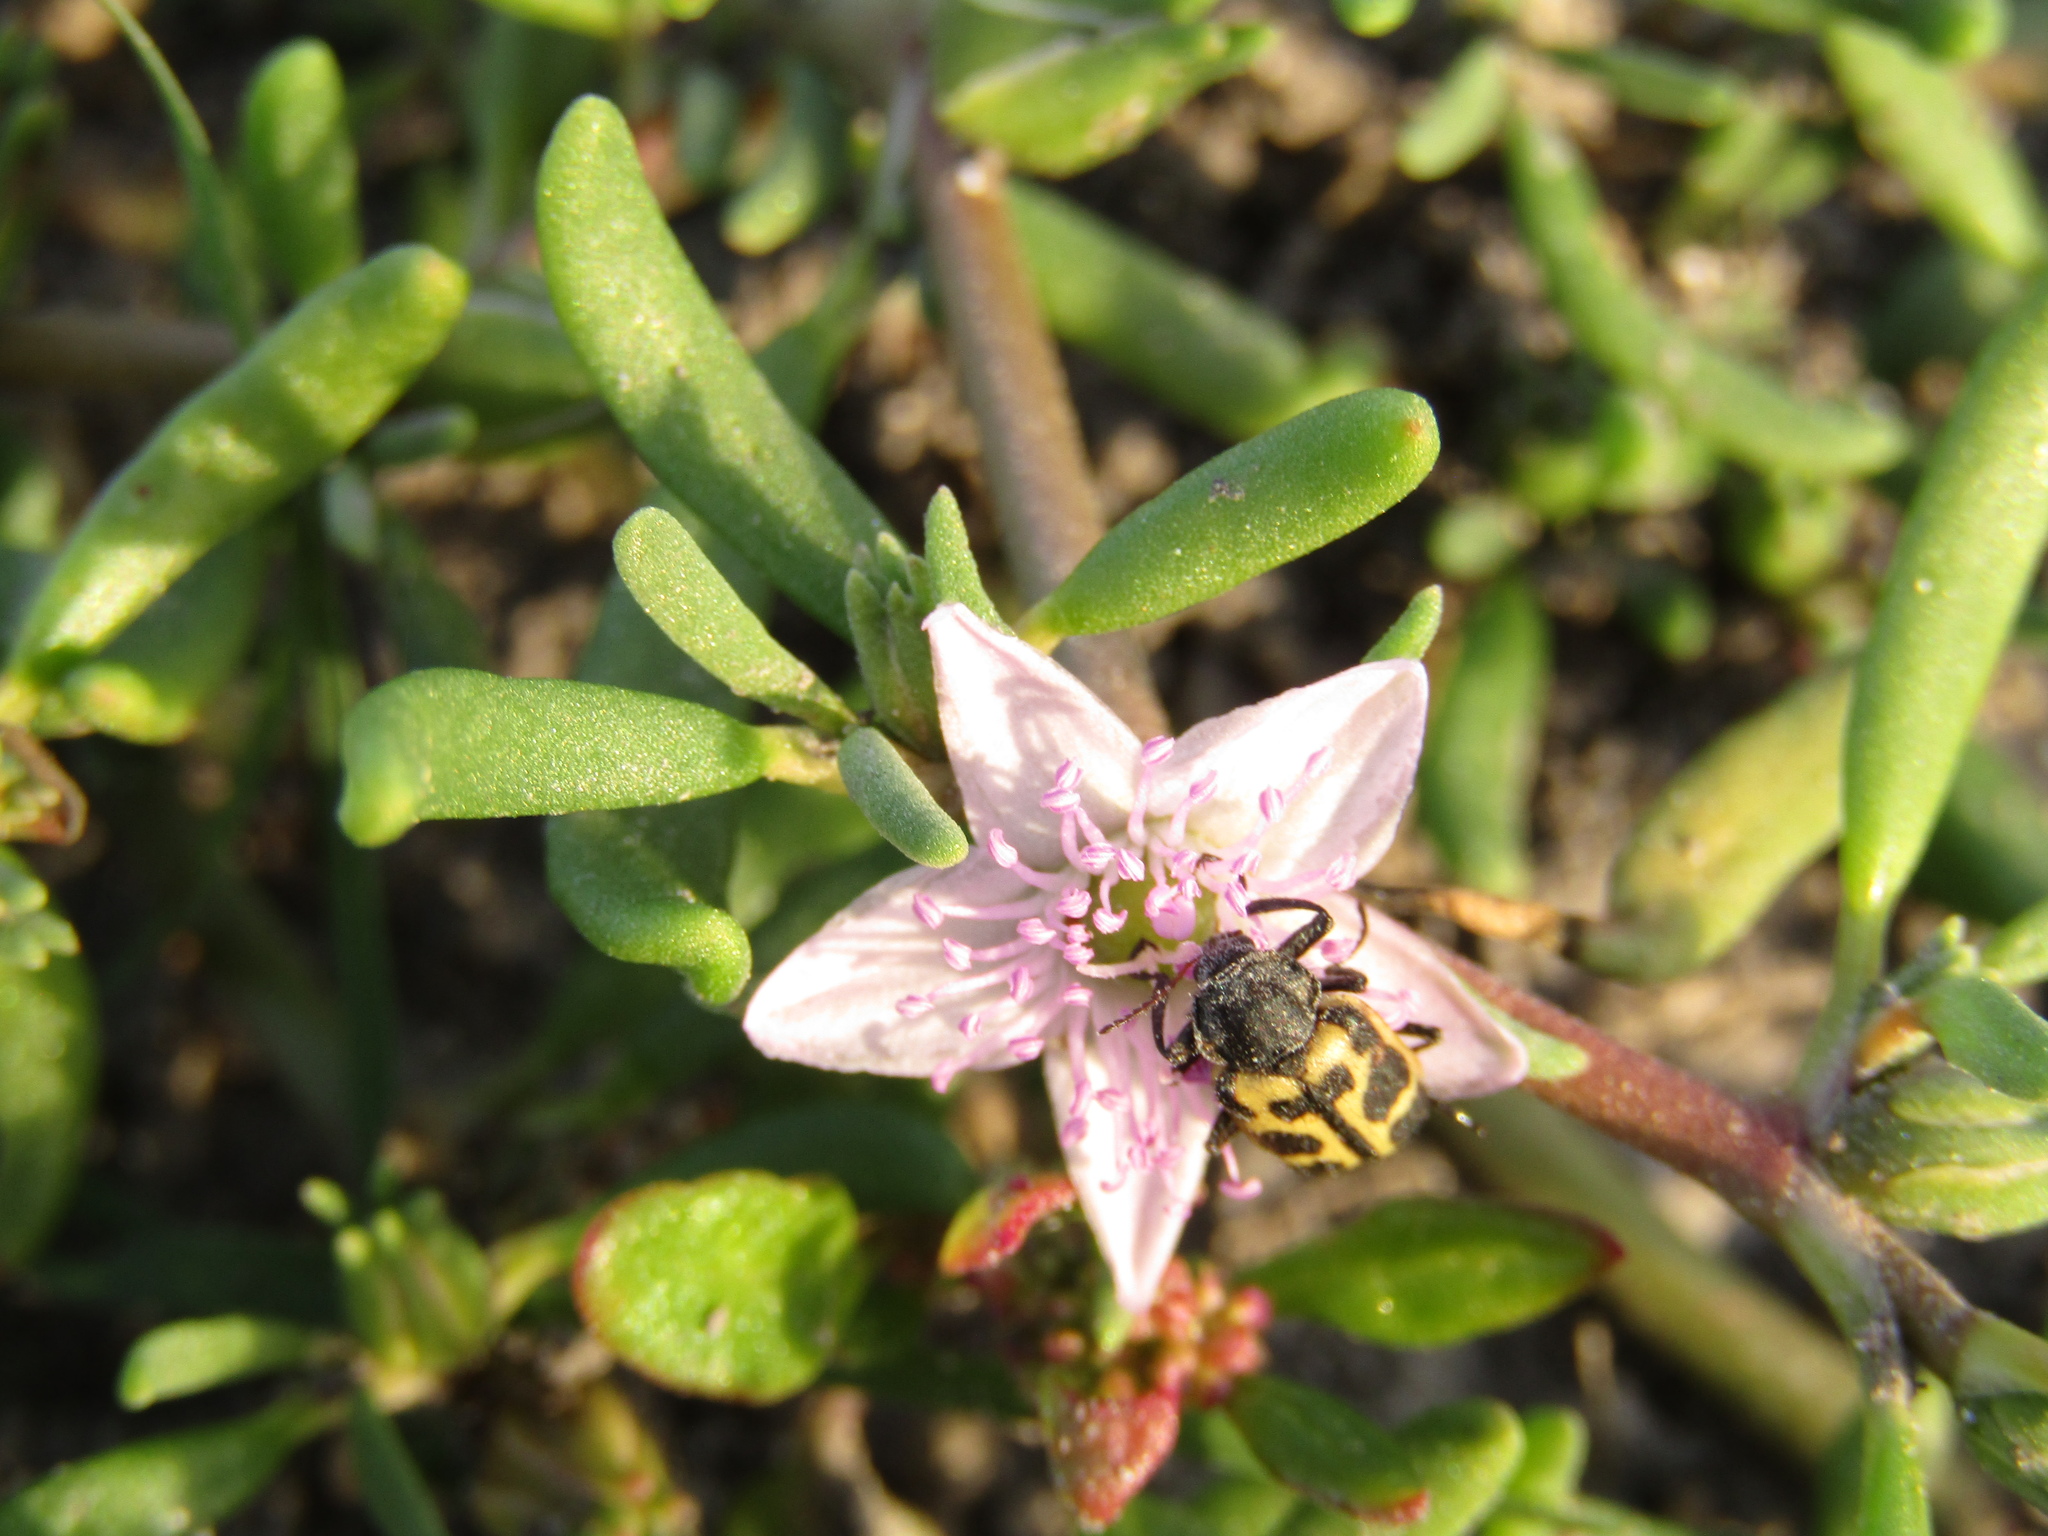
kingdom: Plantae
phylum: Tracheophyta
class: Magnoliopsida
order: Caryophyllales
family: Aizoaceae
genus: Sesuvium
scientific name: Sesuvium portulacastrum
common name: Sea-purslane
